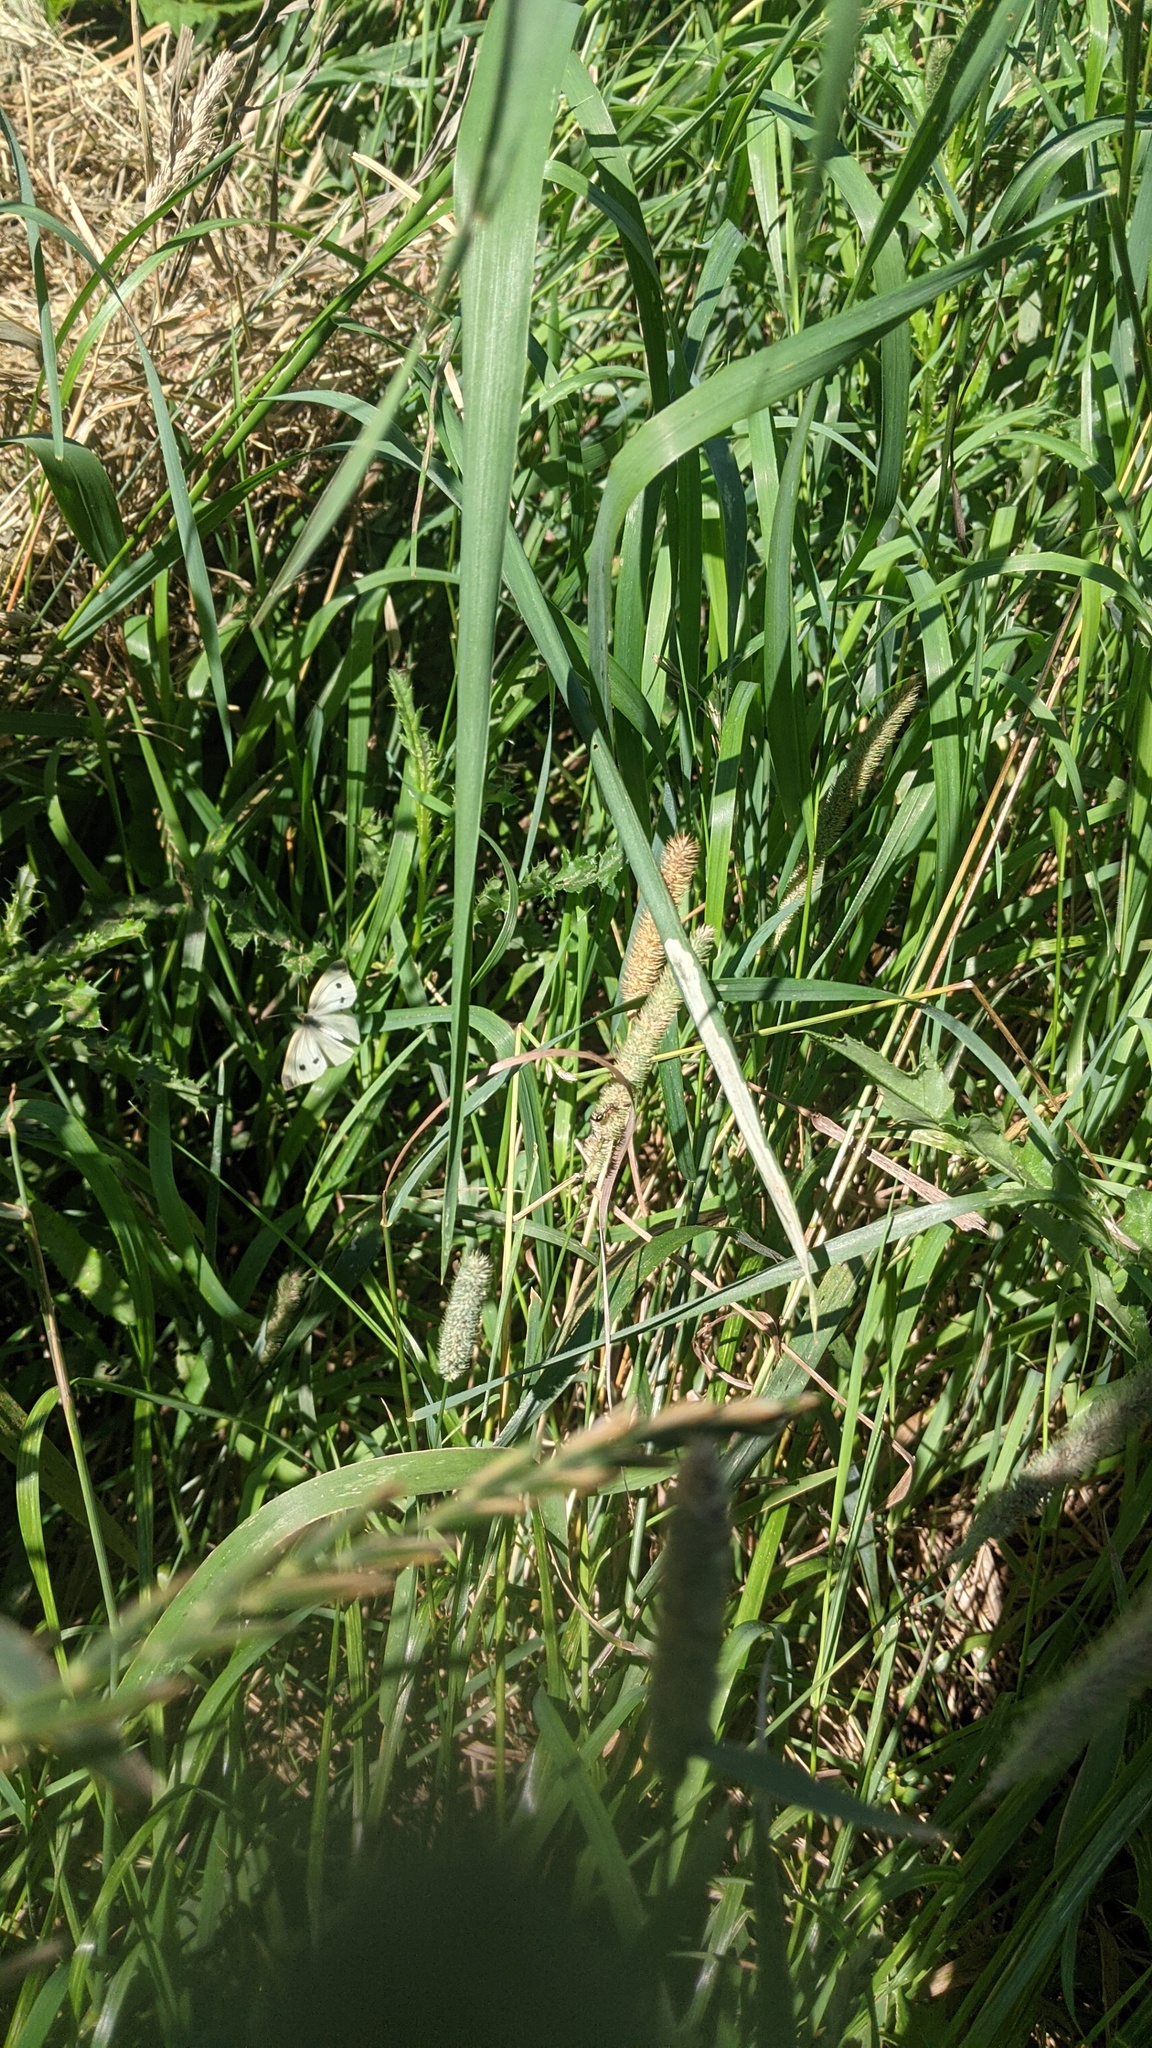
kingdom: Animalia
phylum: Arthropoda
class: Insecta
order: Lepidoptera
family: Pieridae
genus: Pieris
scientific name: Pieris rapae
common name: Small white
